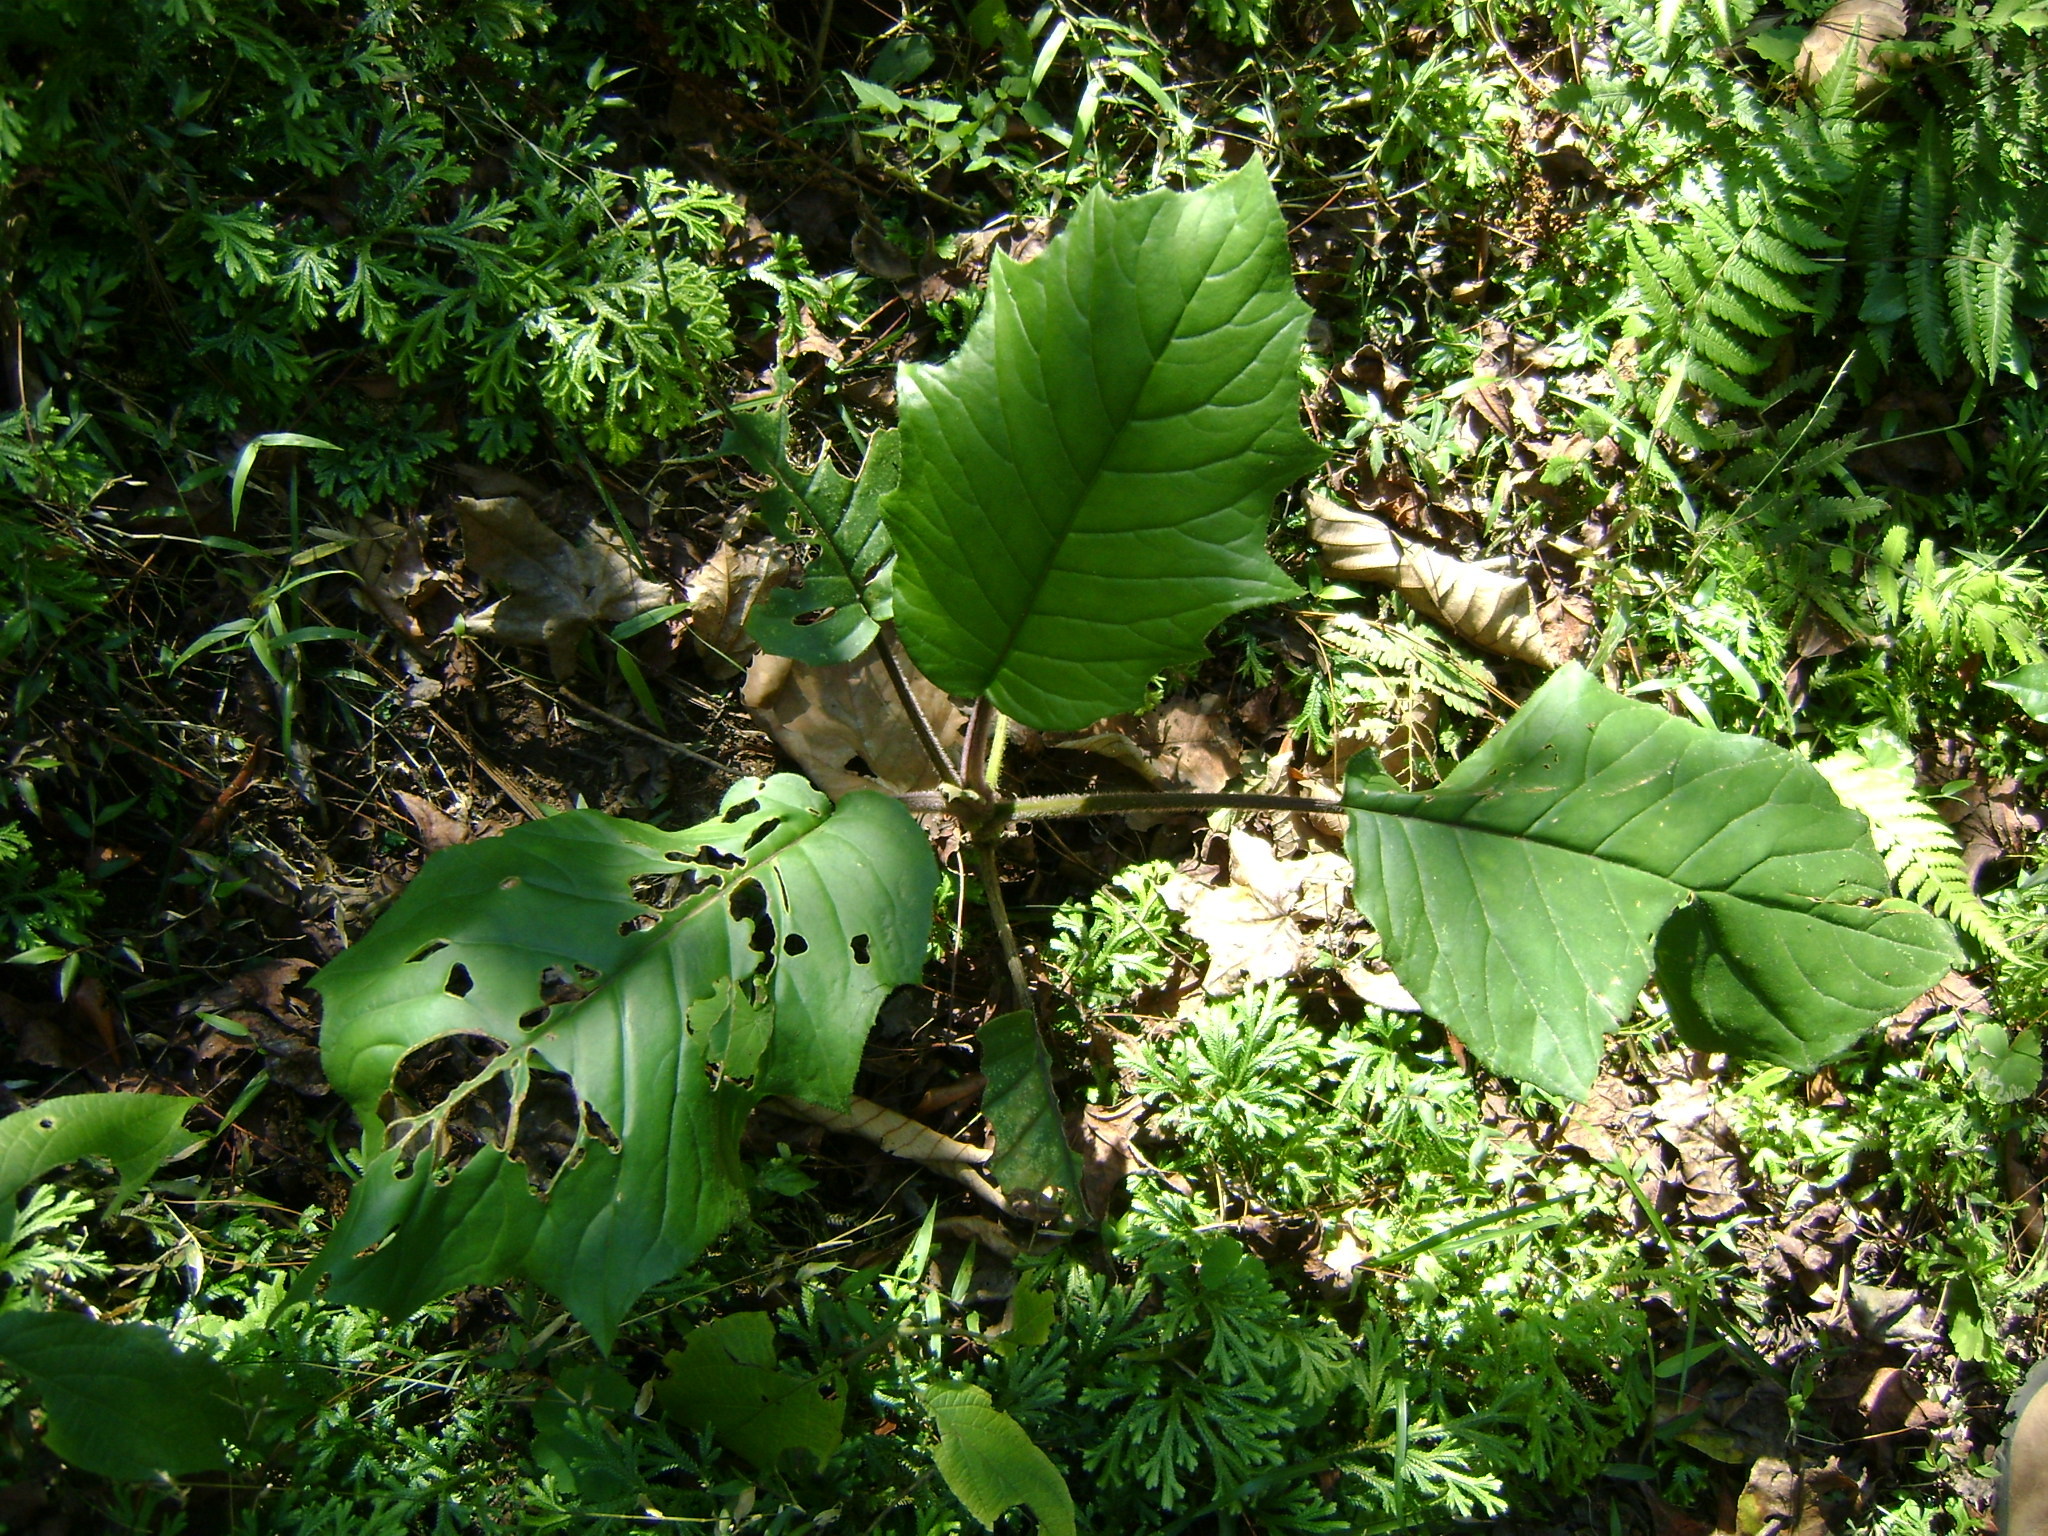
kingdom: Plantae
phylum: Tracheophyta
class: Magnoliopsida
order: Asterales
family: Asteraceae
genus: Telanthophora
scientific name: Telanthophora grandifolia
